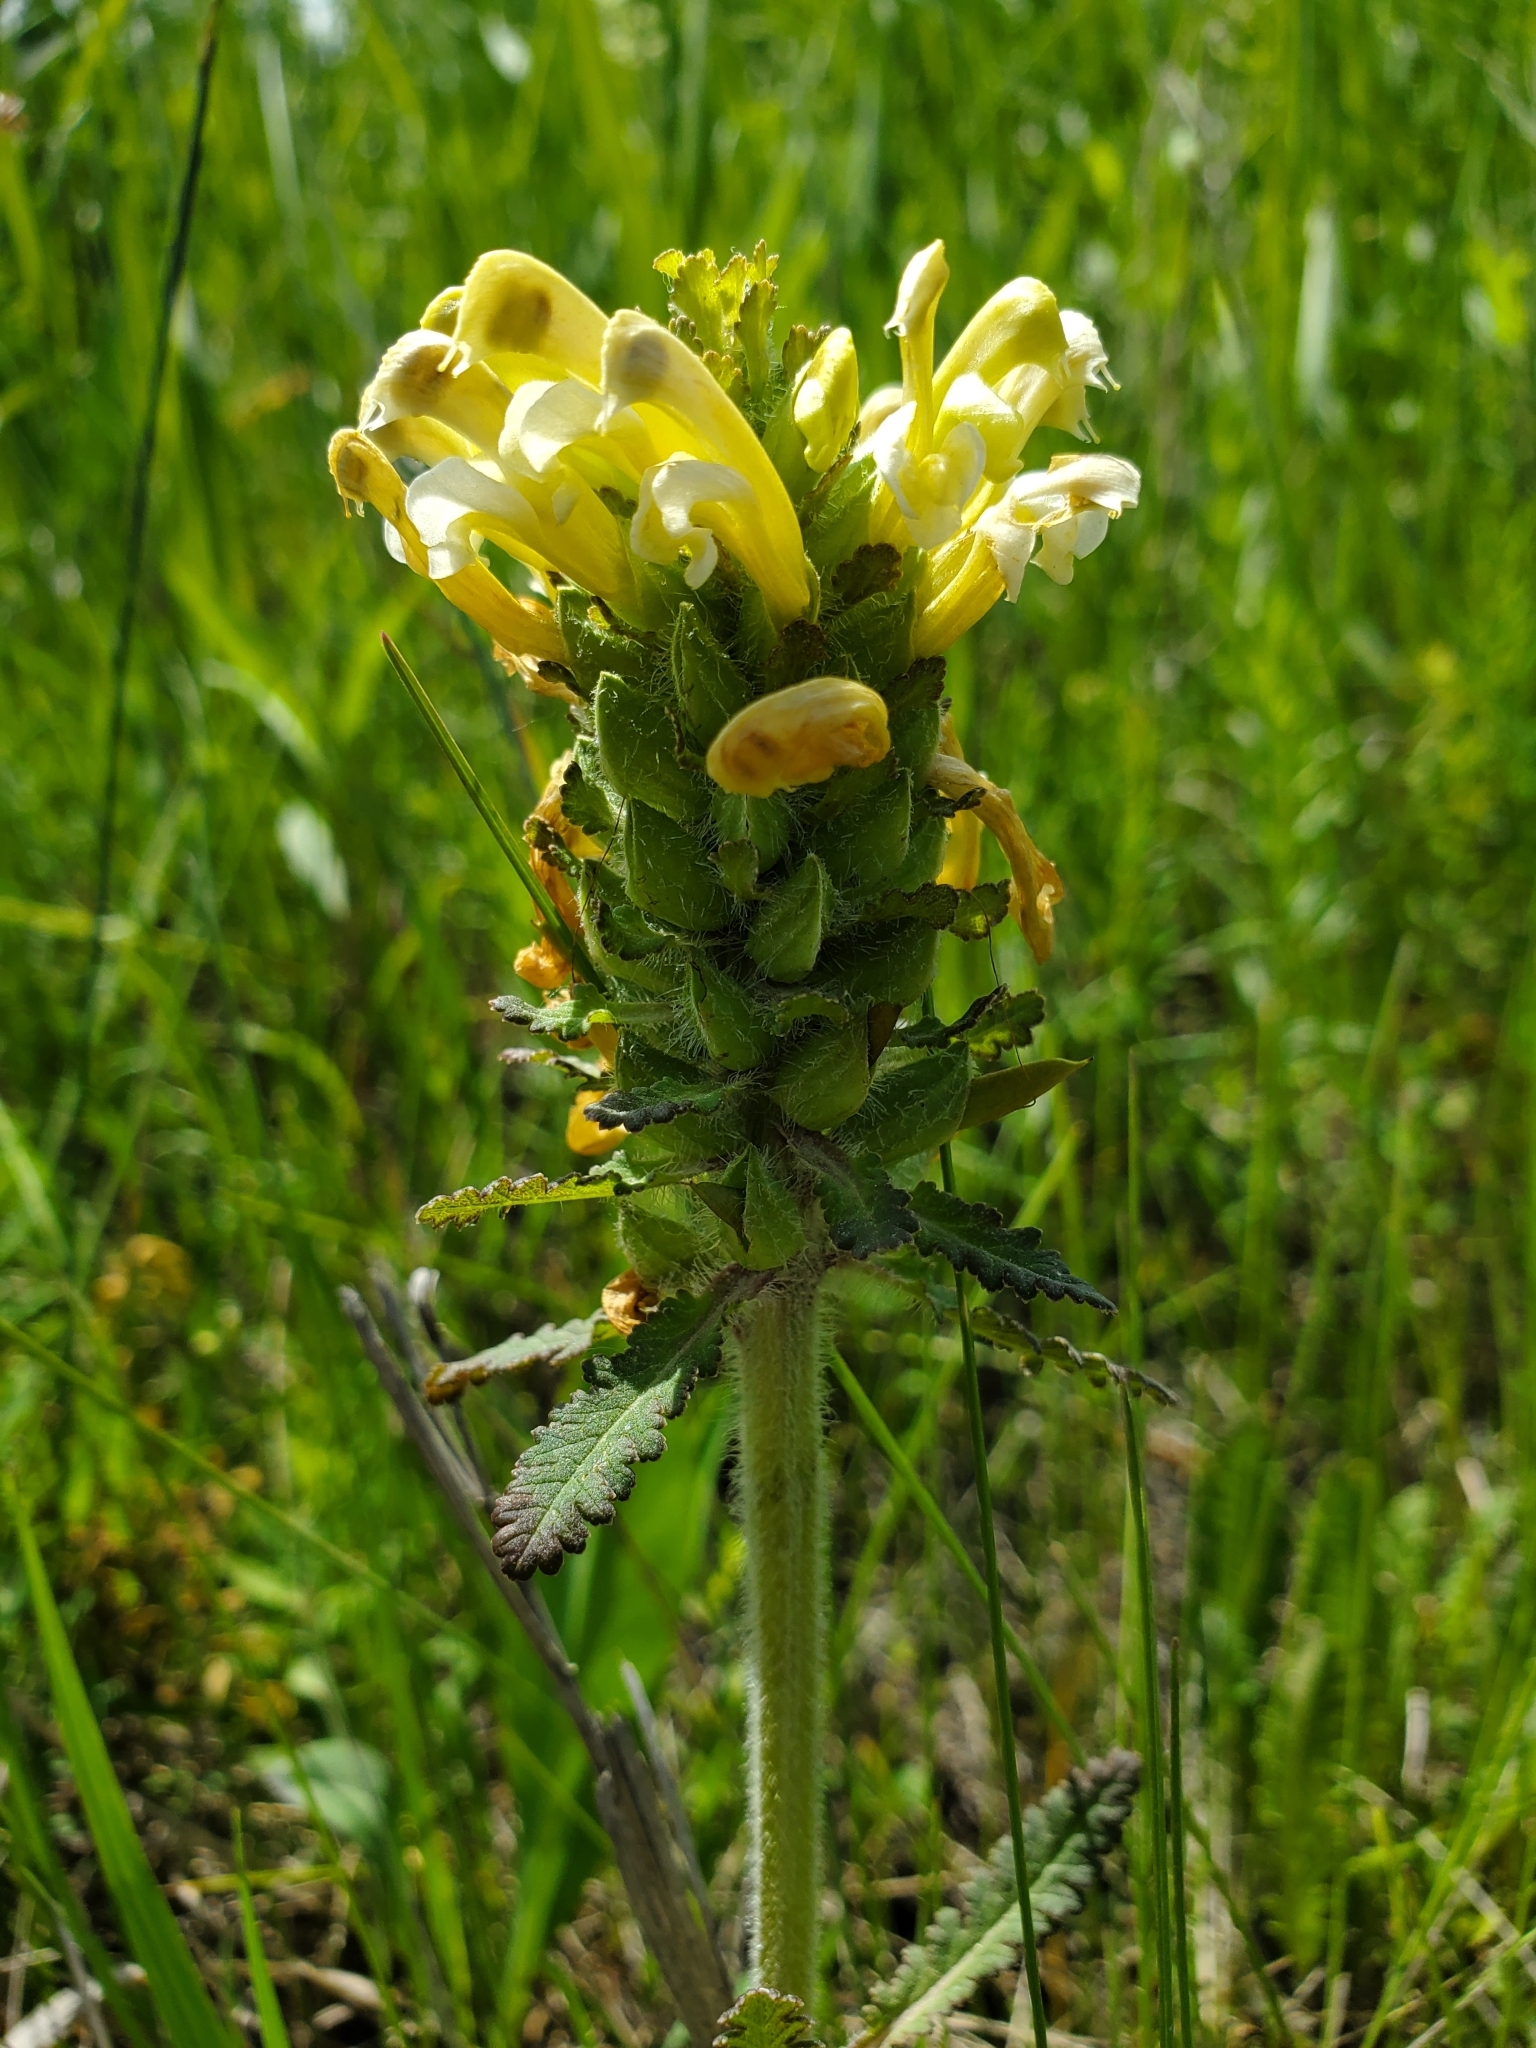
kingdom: Plantae
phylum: Tracheophyta
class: Magnoliopsida
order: Lamiales
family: Orobanchaceae
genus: Pedicularis
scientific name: Pedicularis canadensis
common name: Early lousewort
